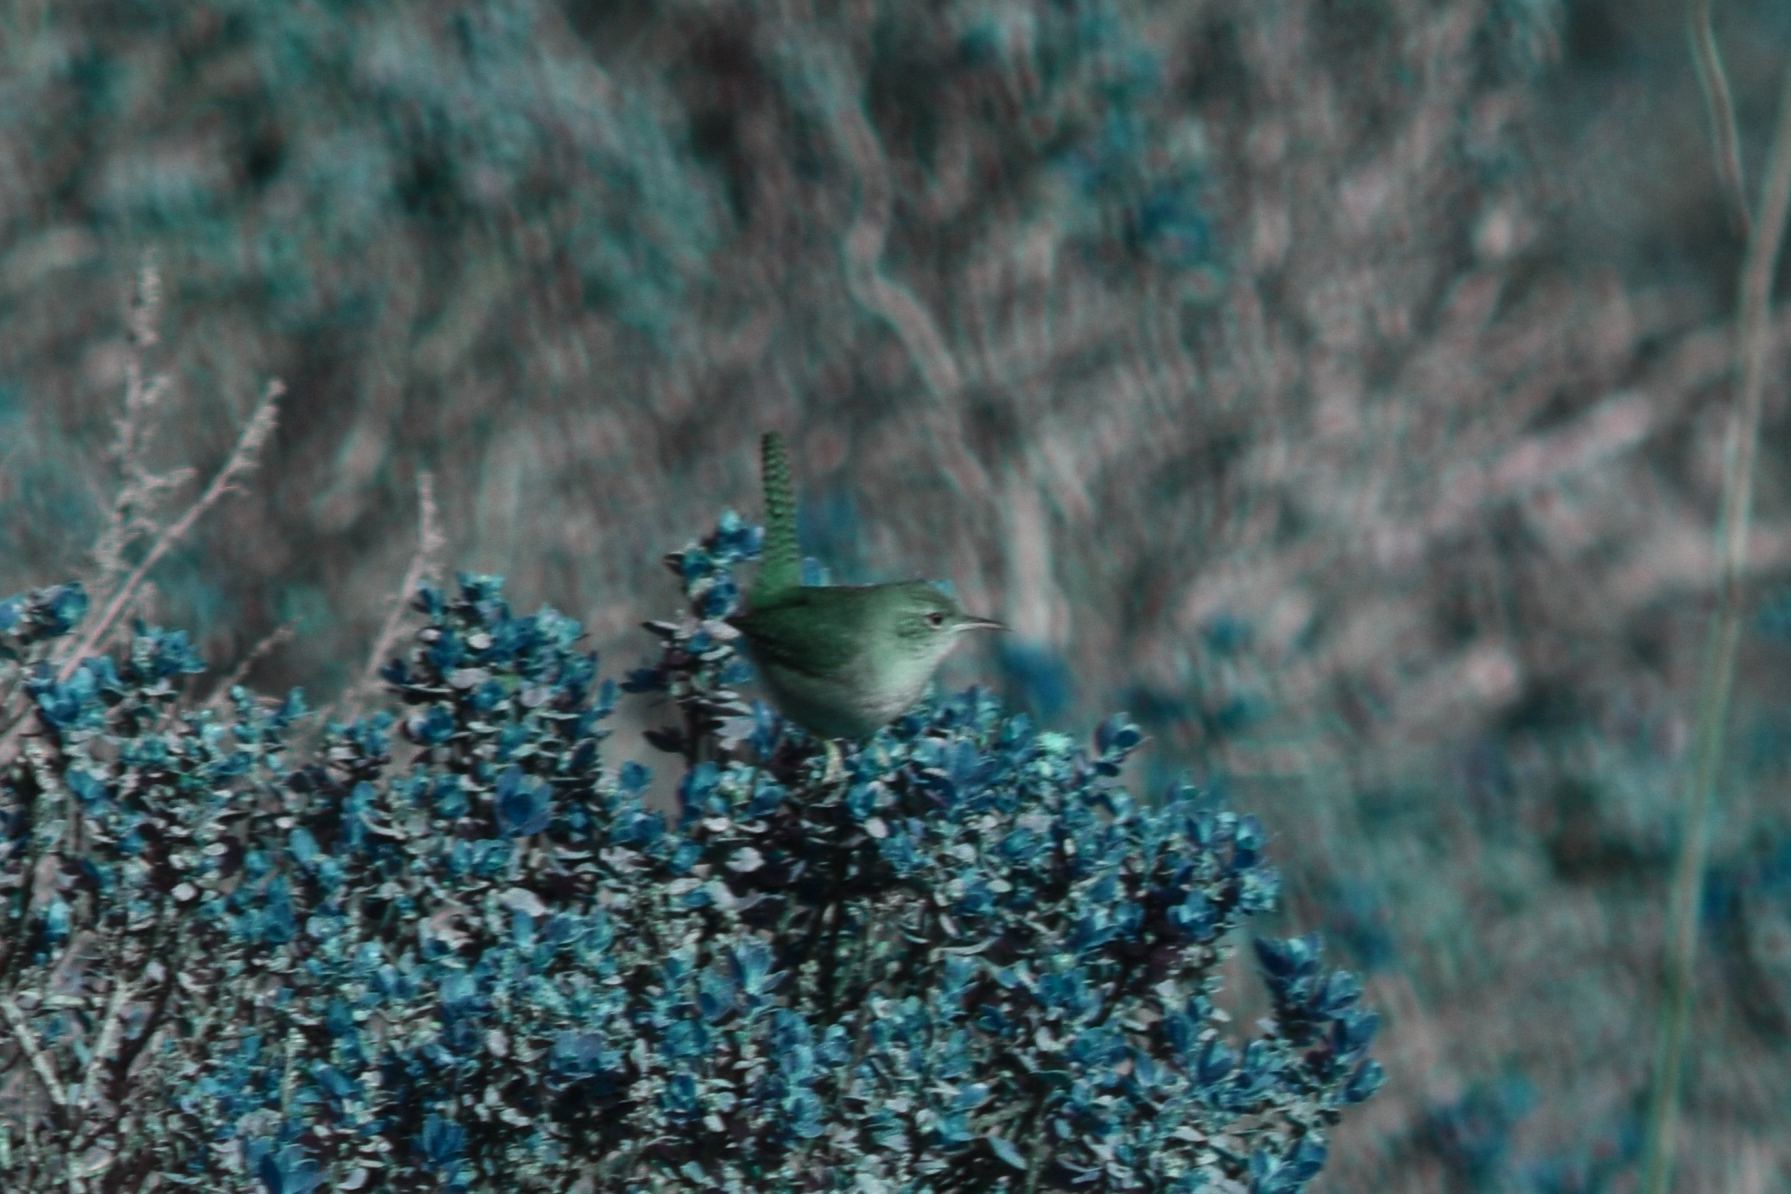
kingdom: Animalia
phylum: Chordata
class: Aves
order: Passeriformes
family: Troglodytidae
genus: Troglodytes
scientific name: Troglodytes aedon
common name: House wren
